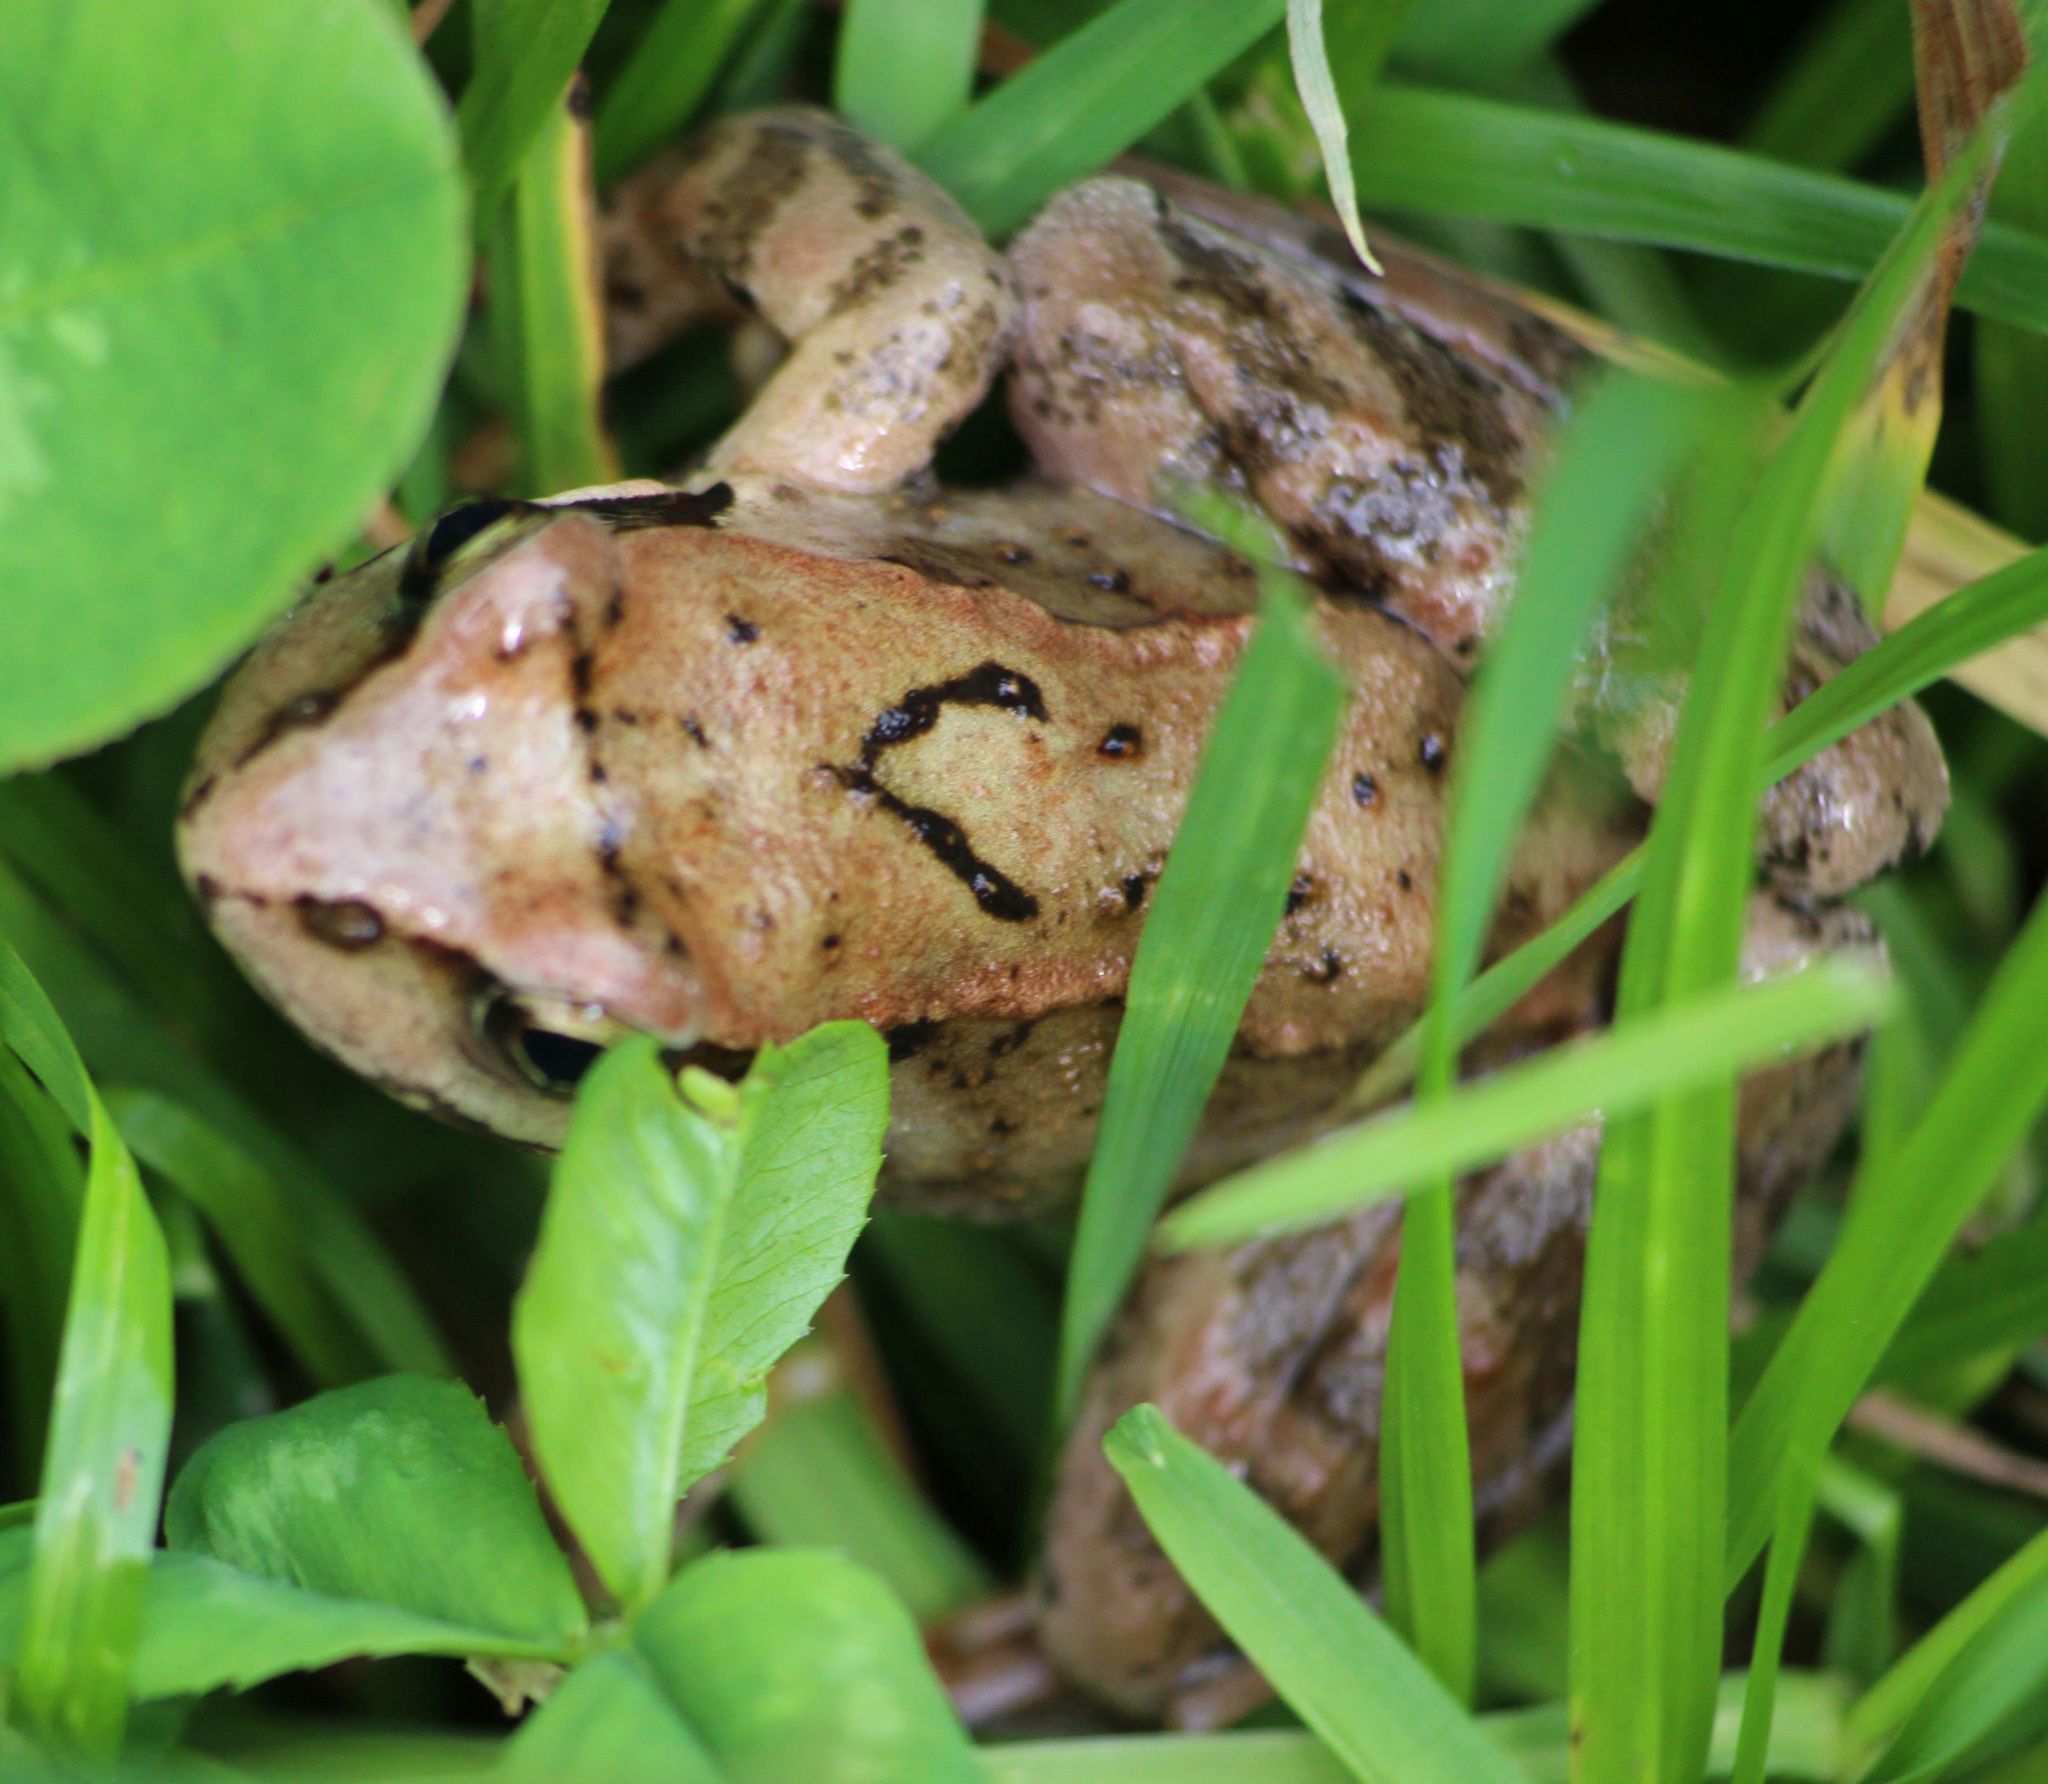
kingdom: Animalia
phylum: Chordata
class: Amphibia
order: Anura
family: Ranidae
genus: Rana
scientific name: Rana temporaria
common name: Common frog
